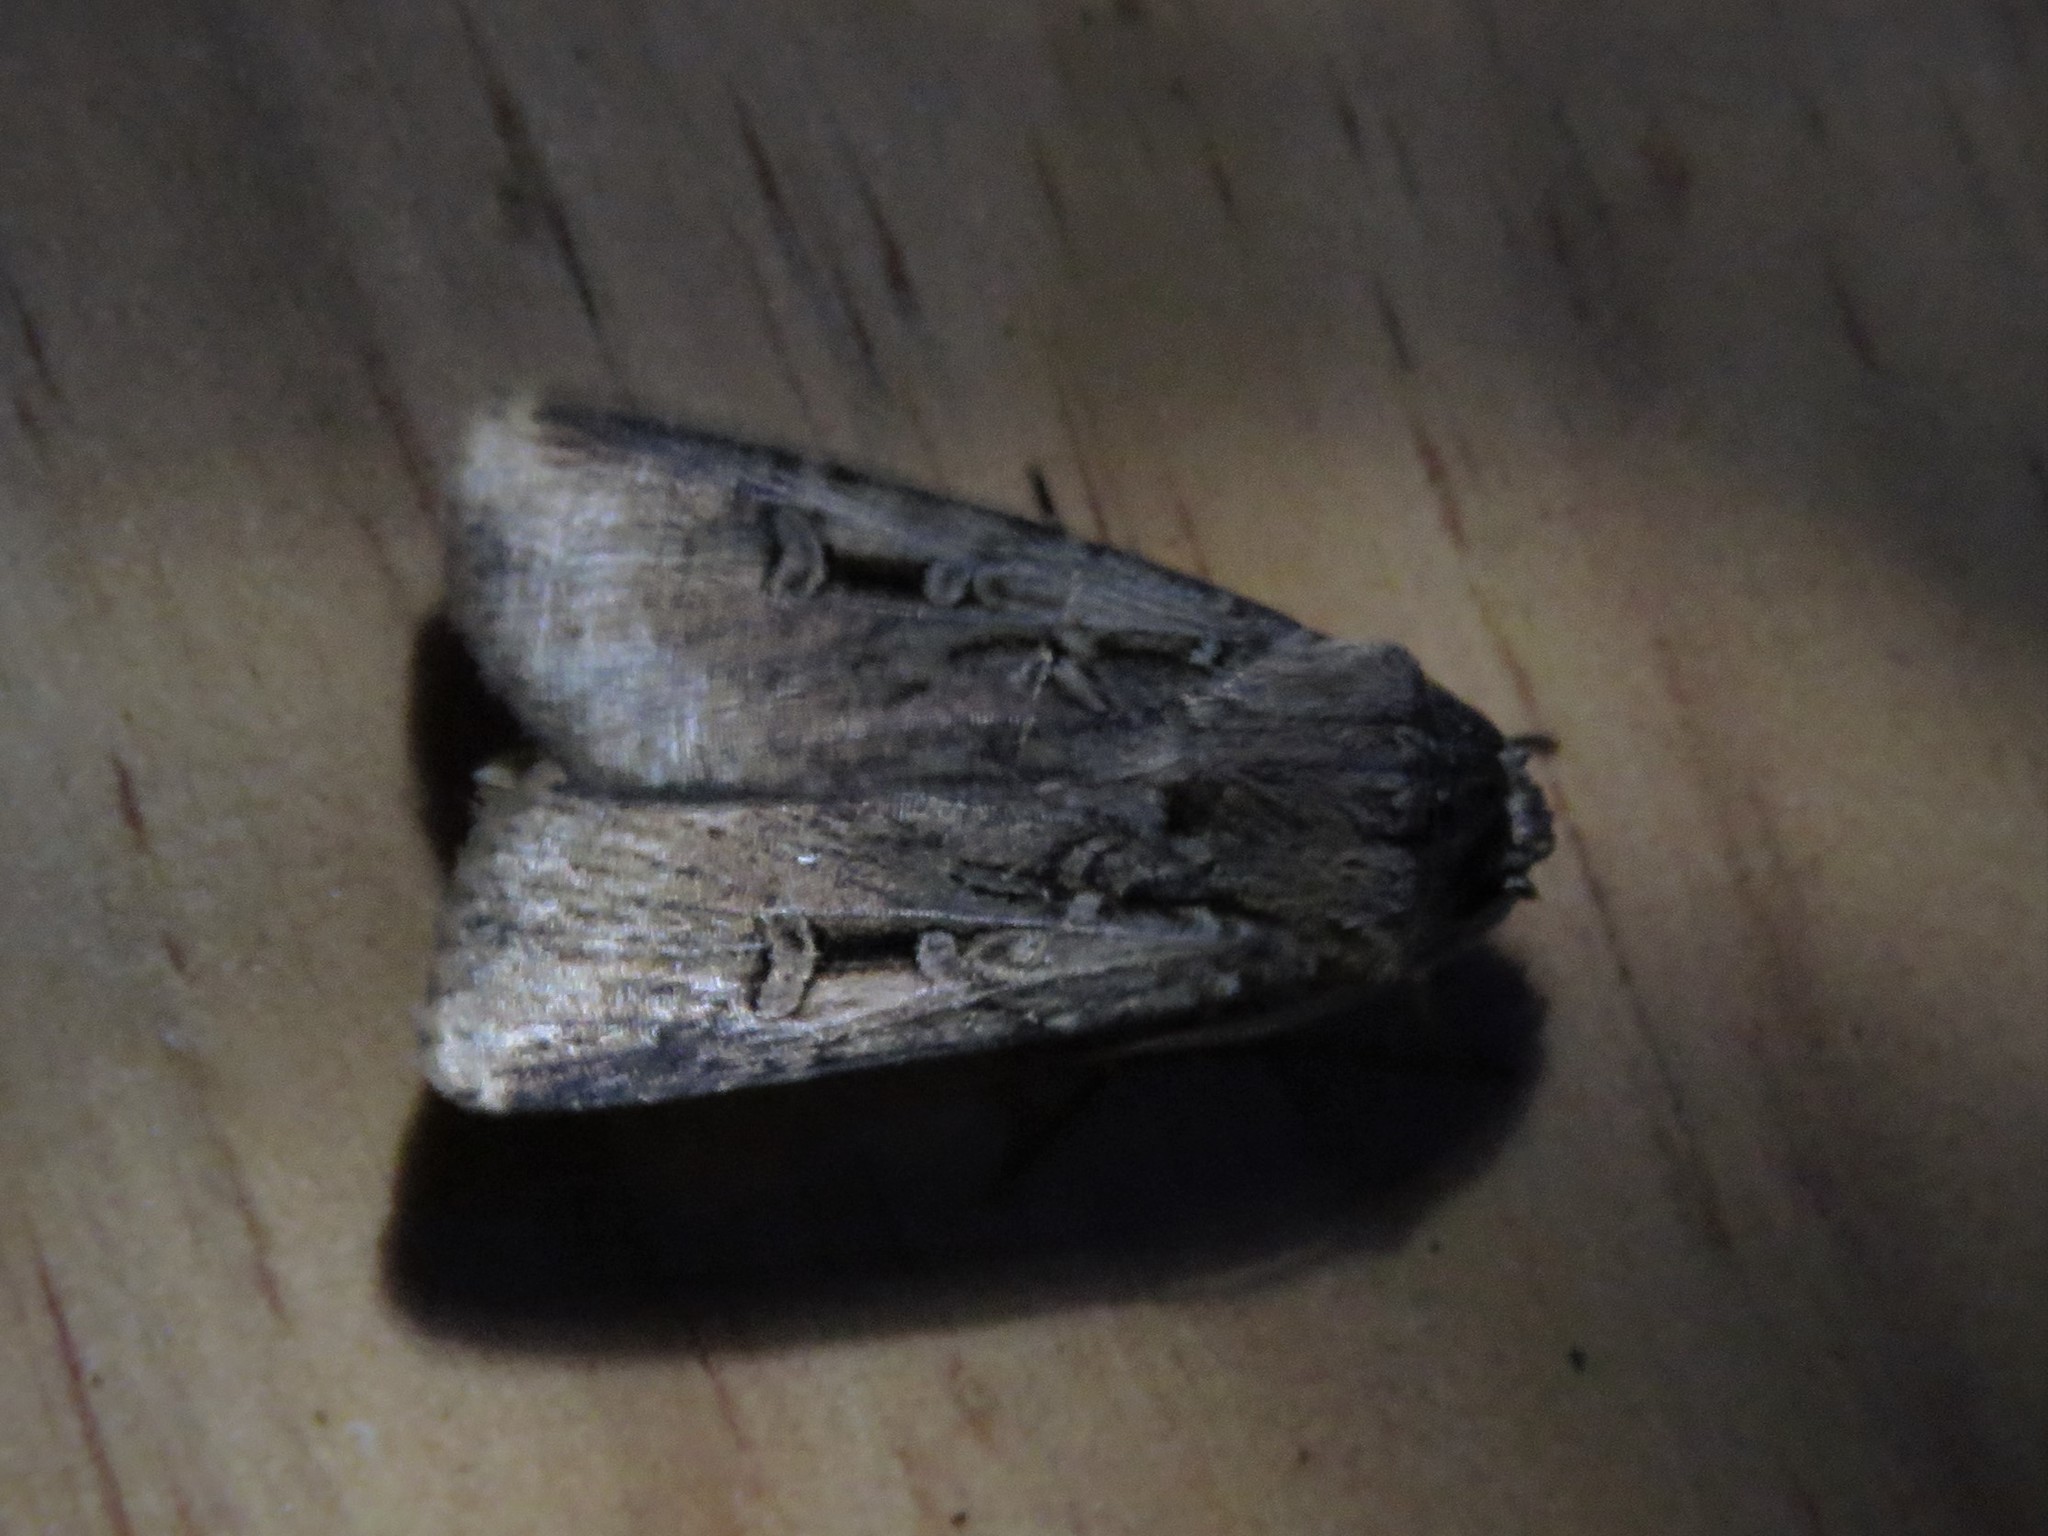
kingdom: Animalia
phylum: Arthropoda
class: Insecta
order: Lepidoptera
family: Noctuidae
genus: Feltia
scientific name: Feltia subterranea
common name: Granulate cutworm
